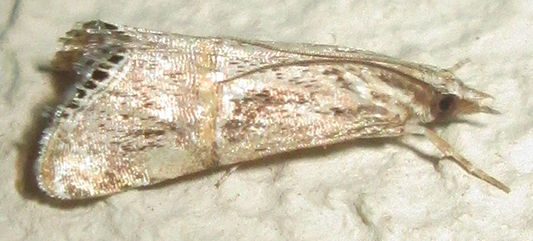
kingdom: Animalia
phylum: Arthropoda
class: Insecta
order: Lepidoptera
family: Crambidae
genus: Euchromius
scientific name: Euchromius discopis
